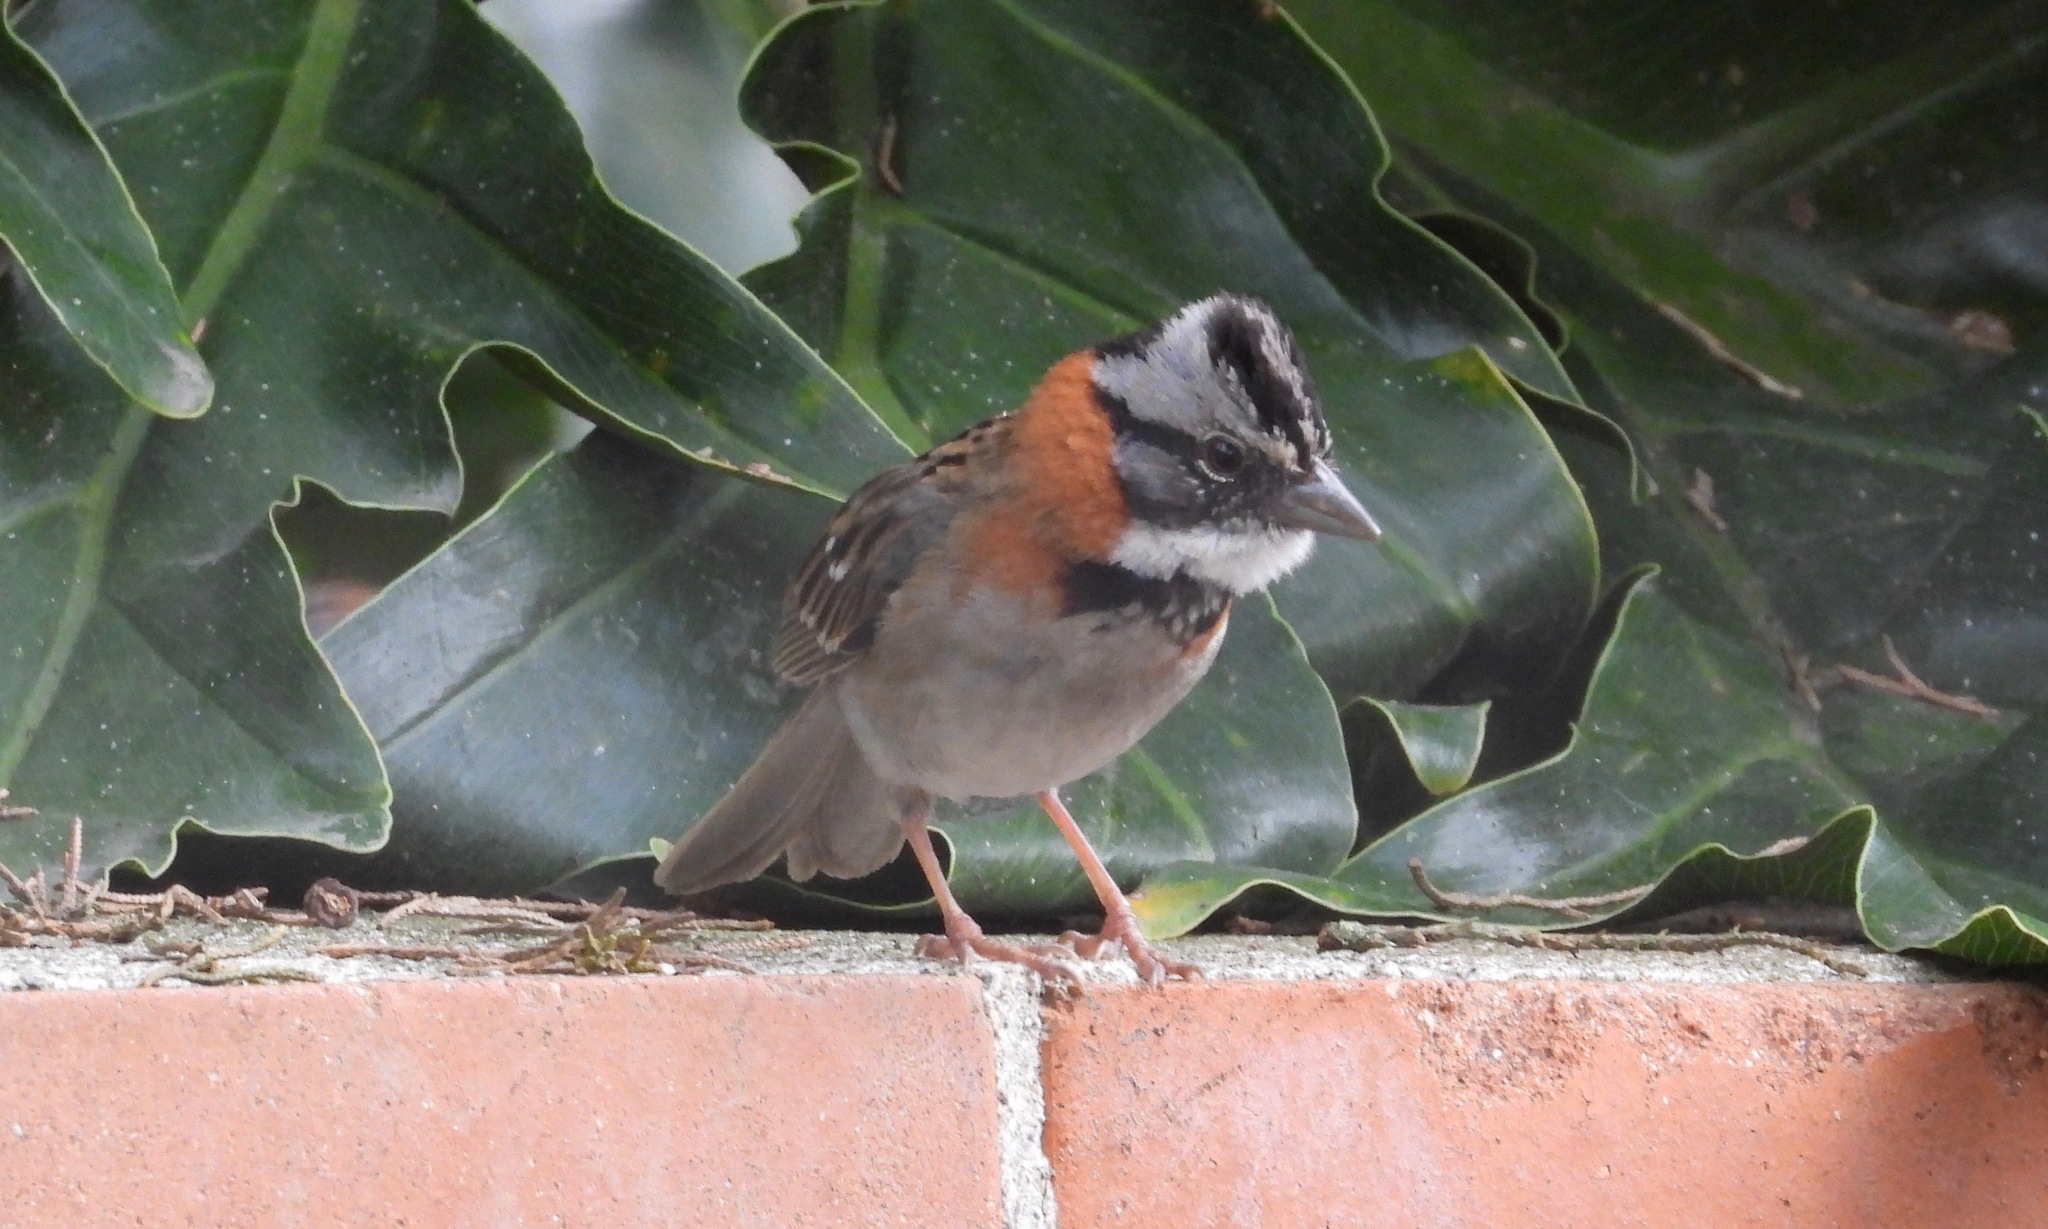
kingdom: Animalia
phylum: Chordata
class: Aves
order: Passeriformes
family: Passerellidae
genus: Zonotrichia
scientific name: Zonotrichia capensis
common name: Rufous-collared sparrow
